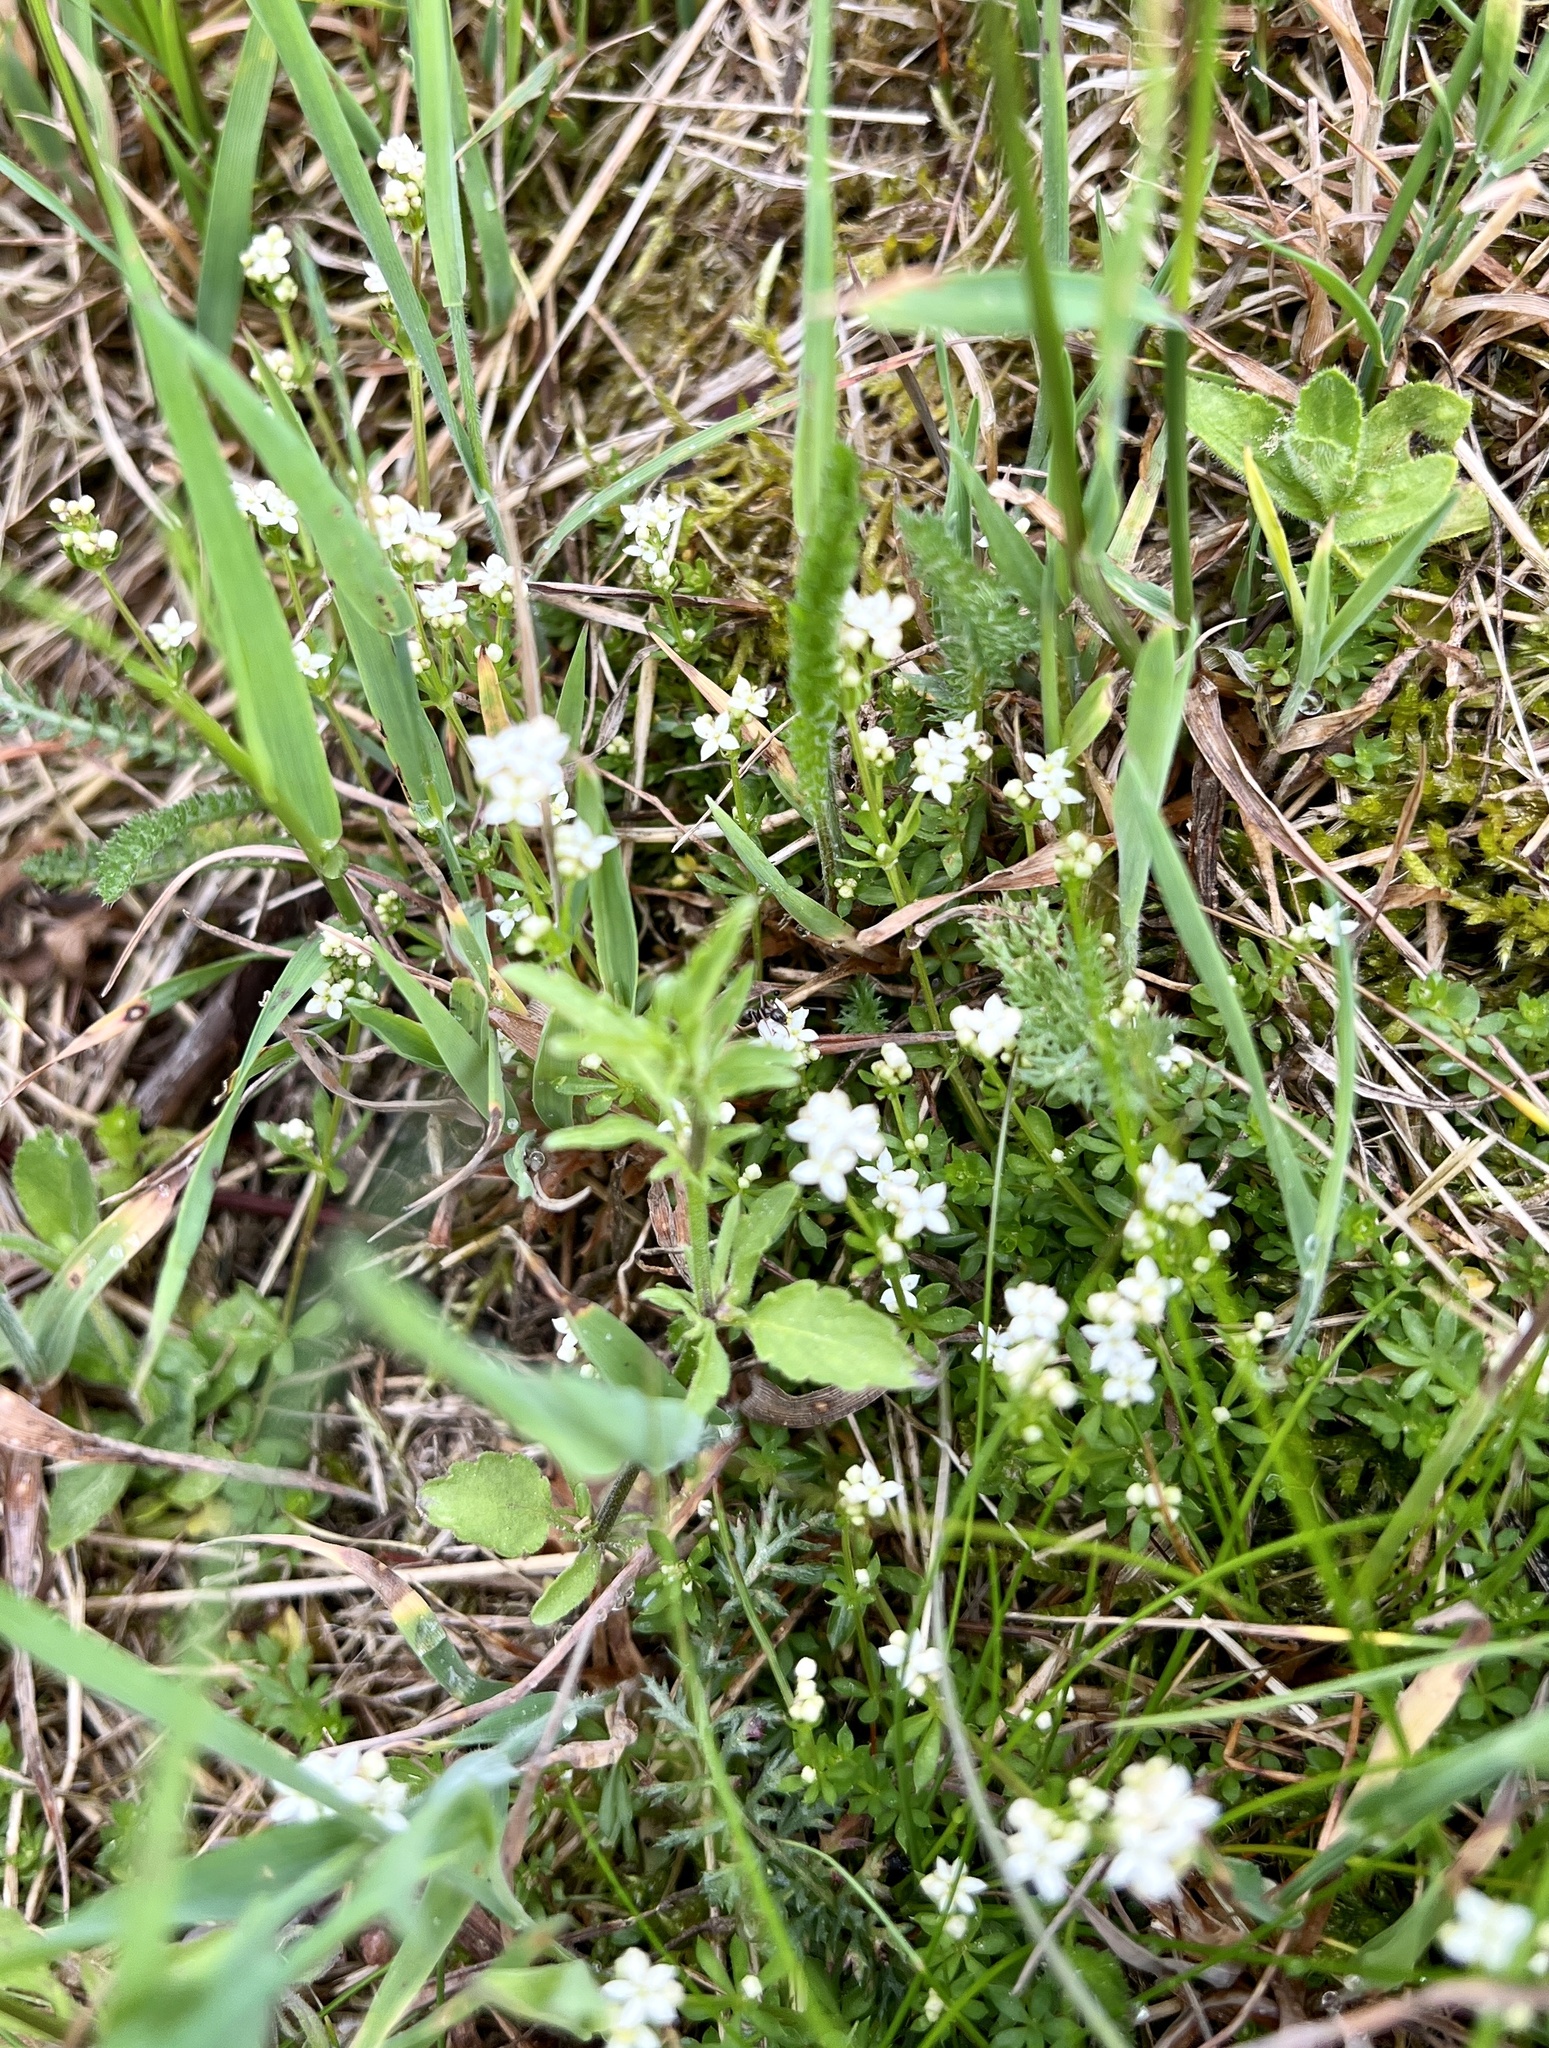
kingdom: Plantae
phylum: Tracheophyta
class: Magnoliopsida
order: Gentianales
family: Rubiaceae
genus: Galium
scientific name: Galium saxatile
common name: Heath bedstraw
